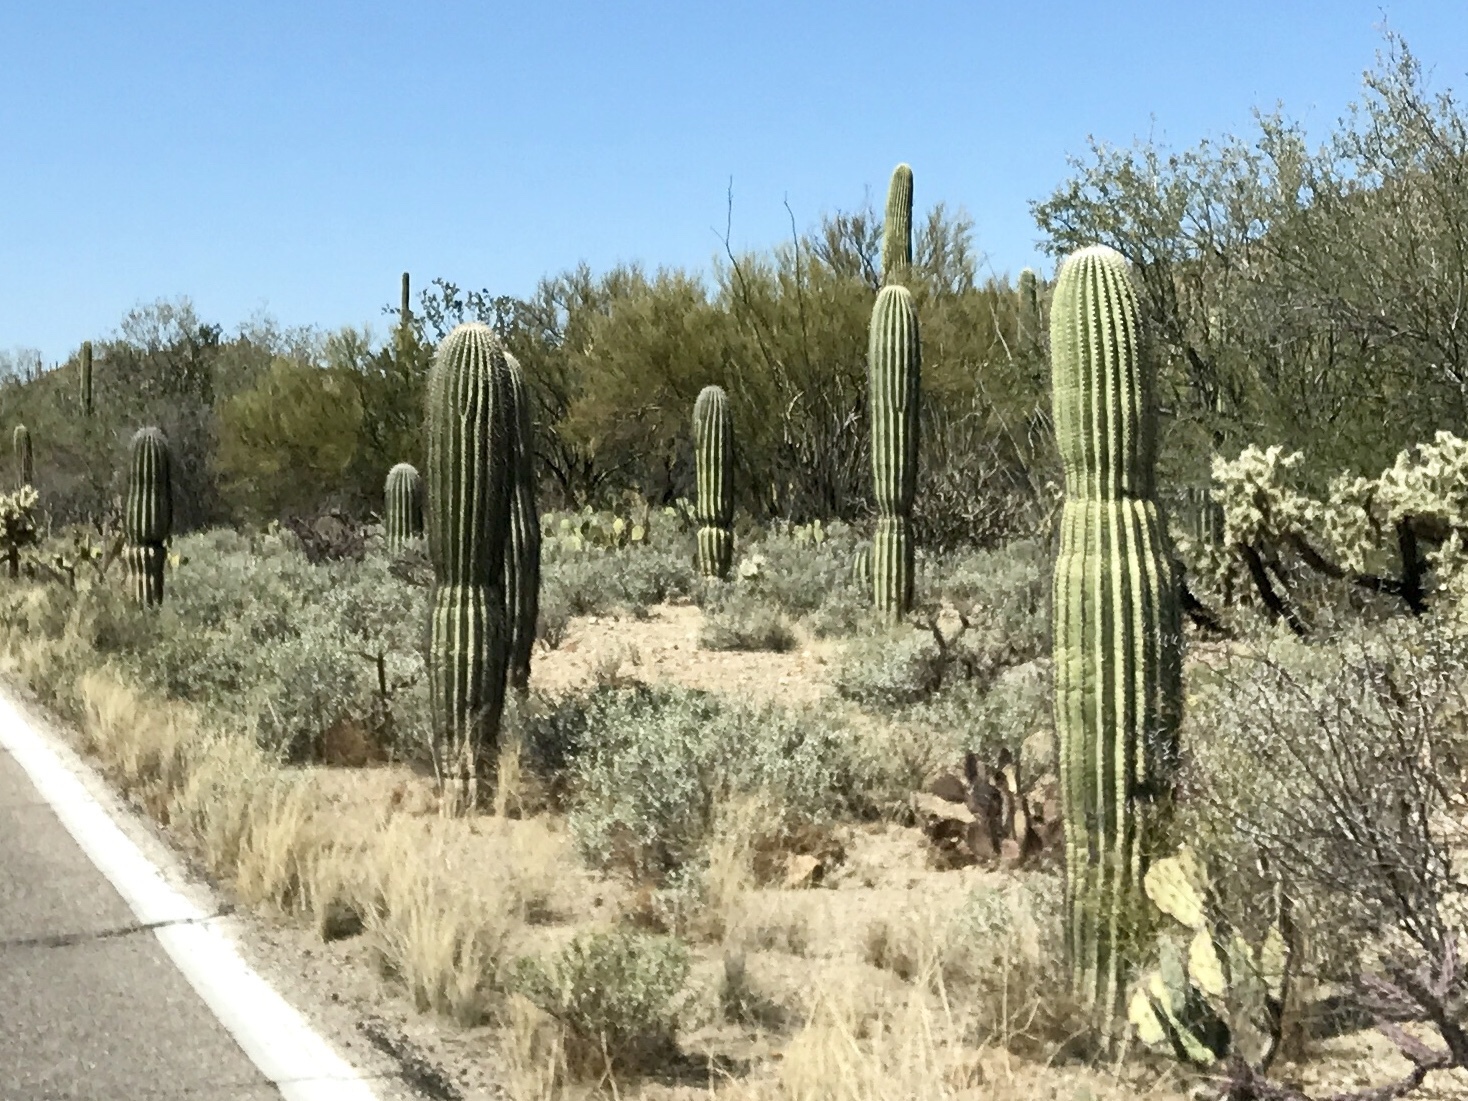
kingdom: Plantae
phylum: Tracheophyta
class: Magnoliopsida
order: Caryophyllales
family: Cactaceae
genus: Carnegiea
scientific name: Carnegiea gigantea
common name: Saguaro
